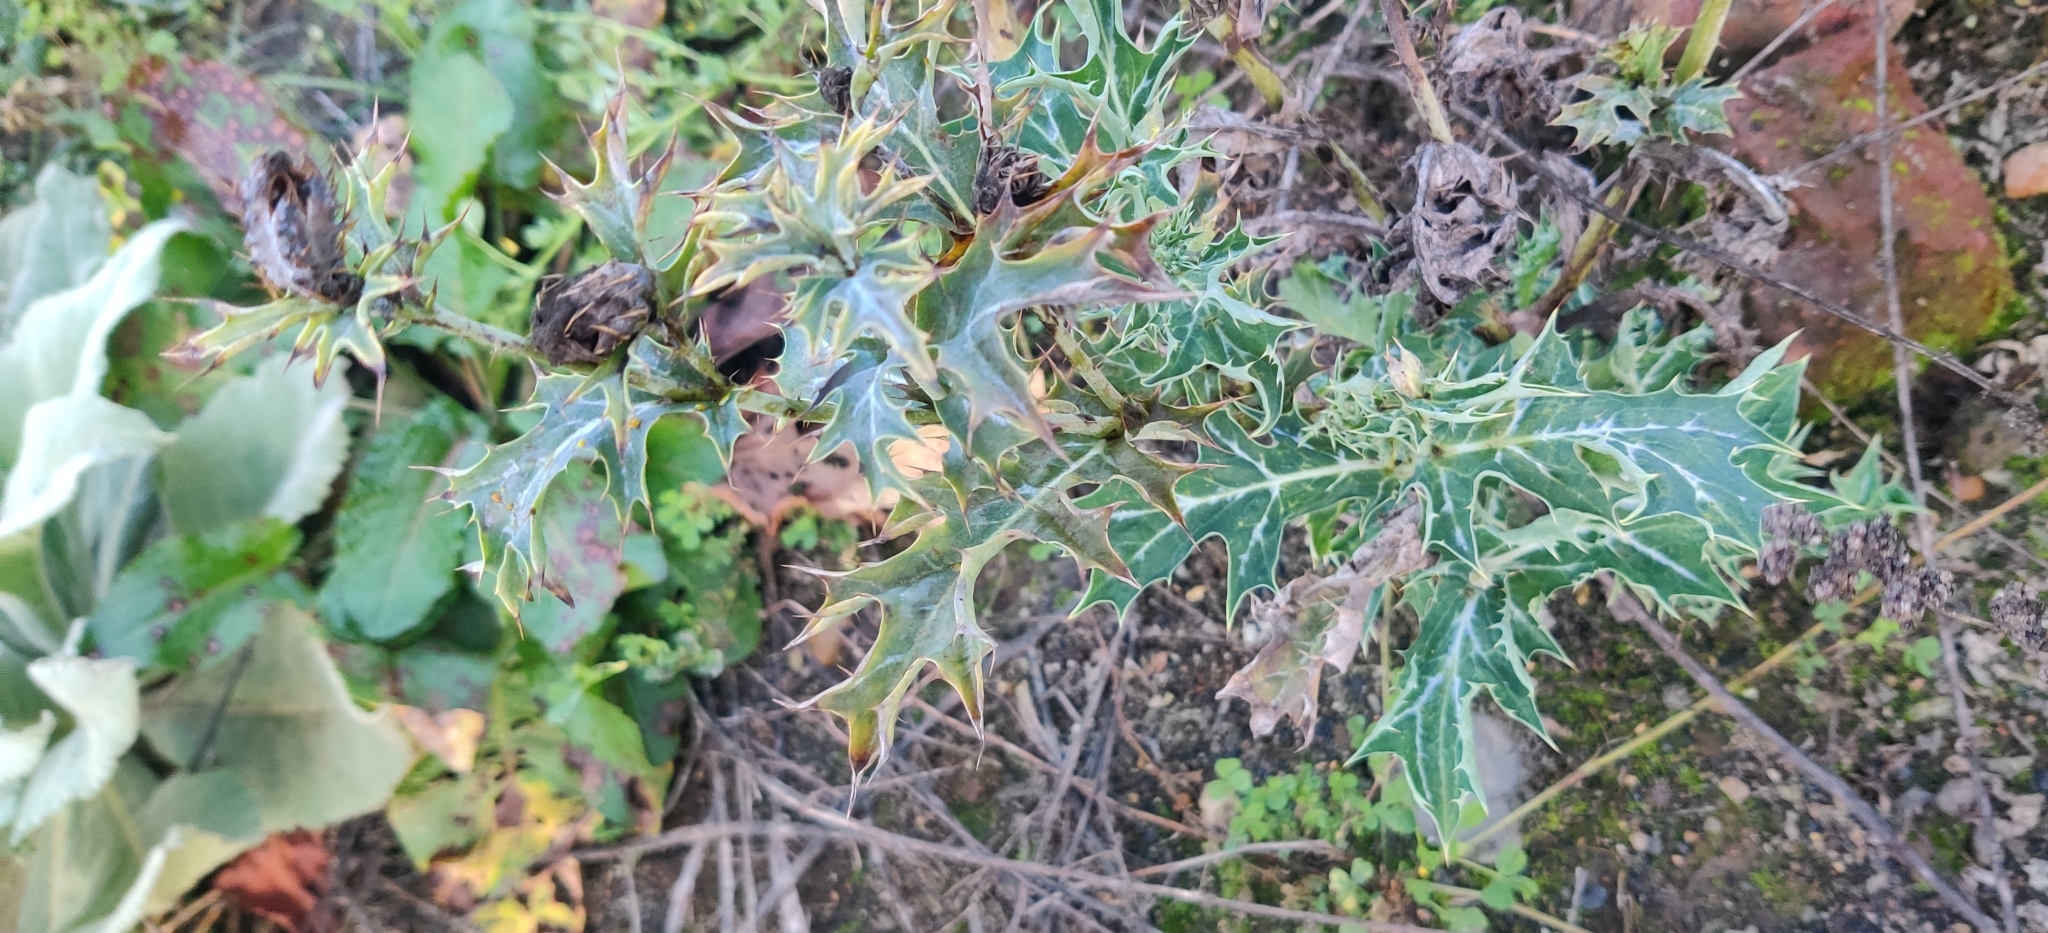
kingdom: Plantae
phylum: Tracheophyta
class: Magnoliopsida
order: Ranunculales
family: Papaveraceae
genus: Argemone
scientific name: Argemone ochroleuca
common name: White-flower mexican-poppy
